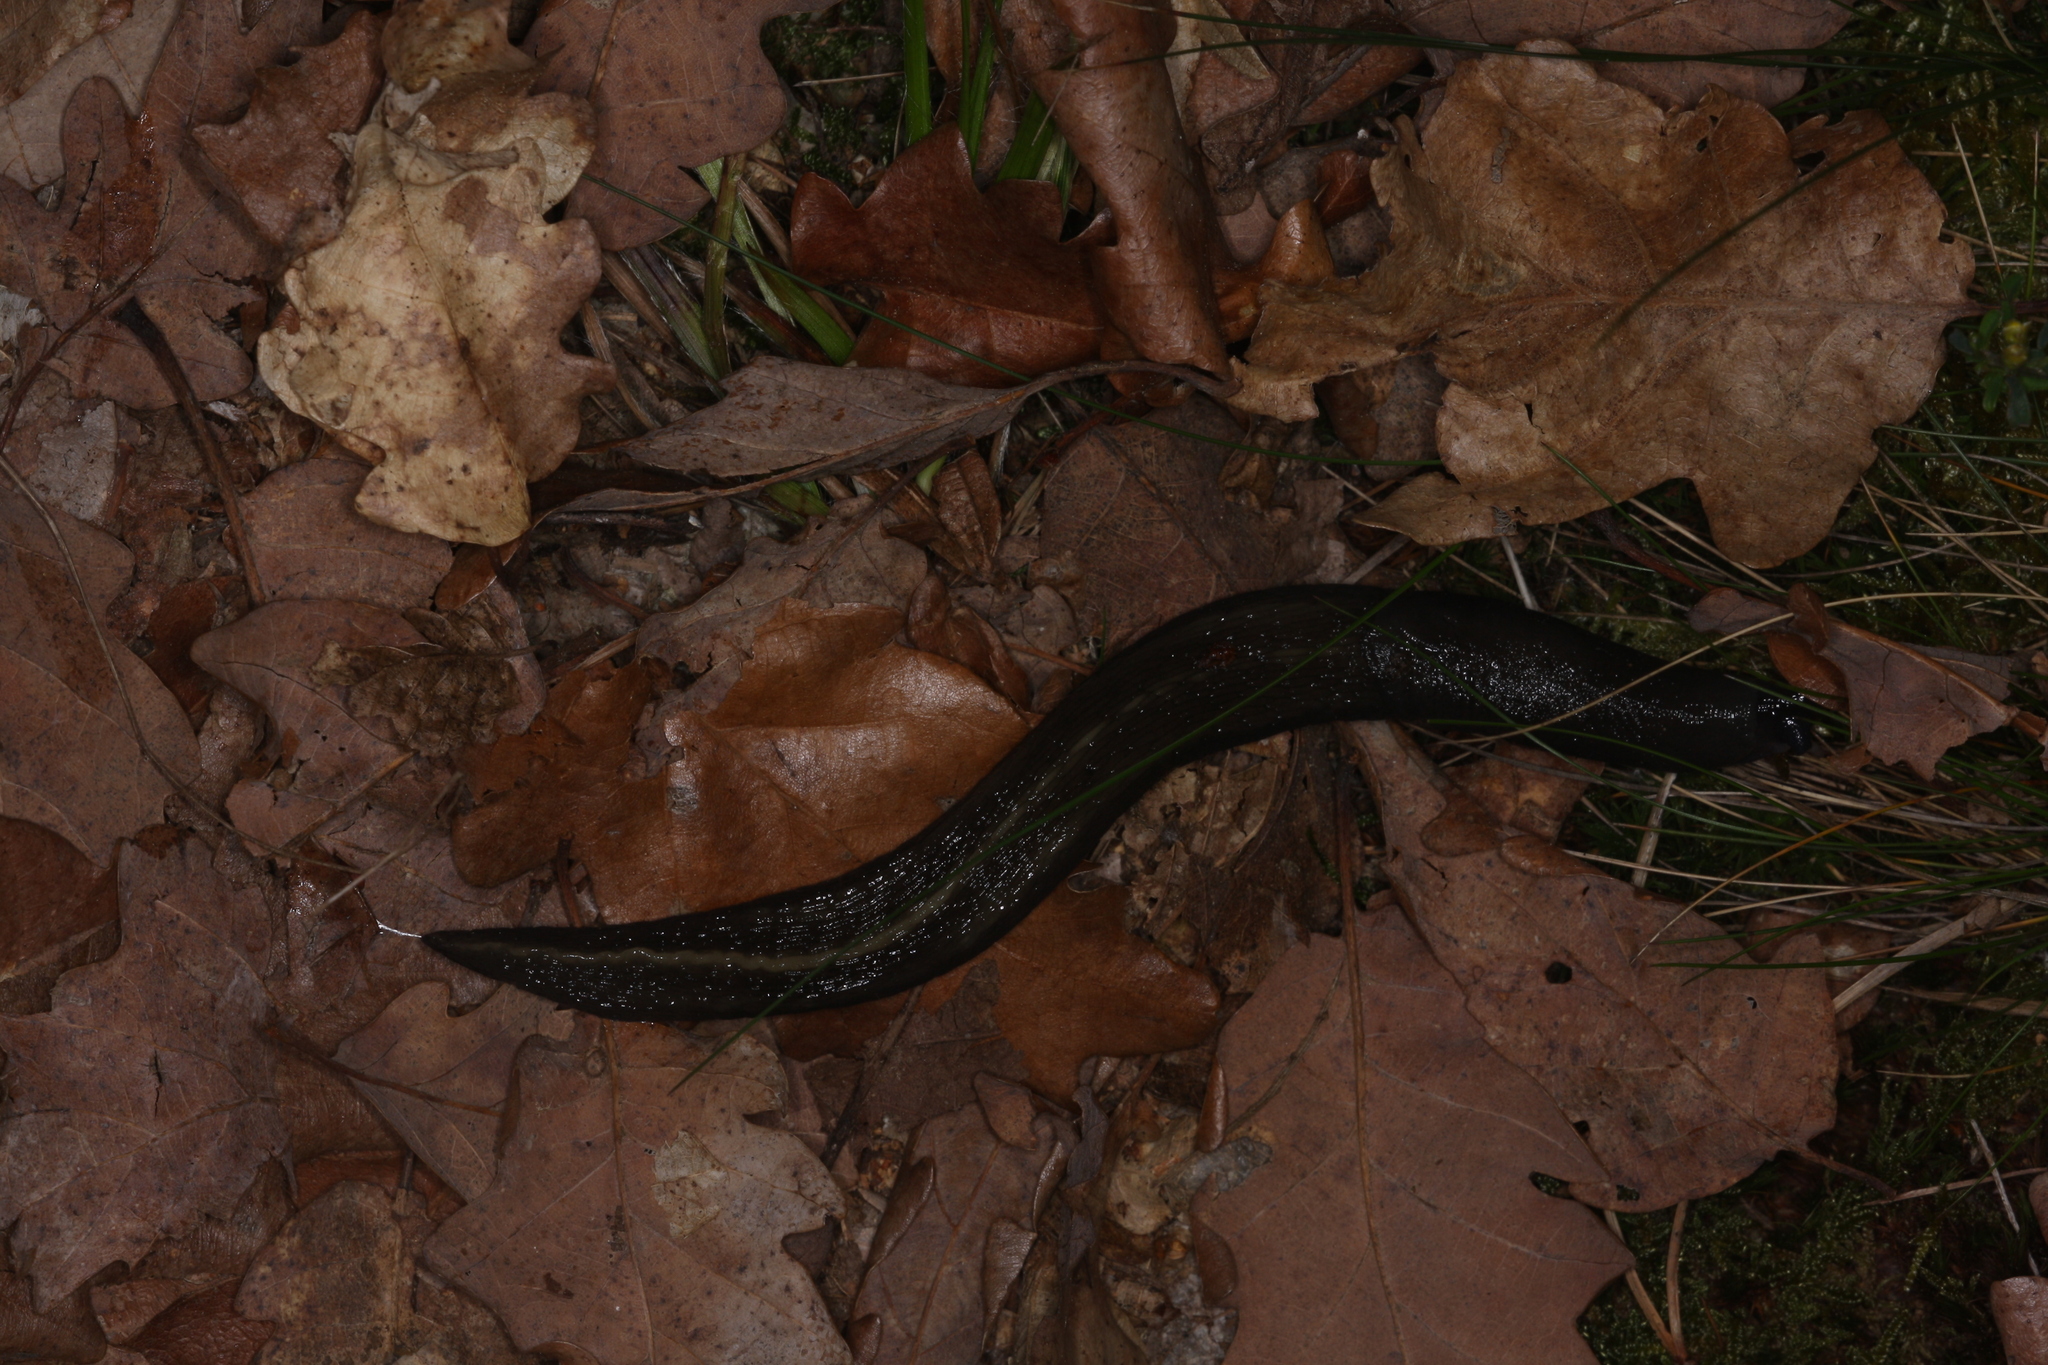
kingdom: Animalia
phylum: Mollusca
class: Gastropoda
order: Stylommatophora
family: Limacidae
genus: Limax
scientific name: Limax cinereoniger
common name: Ash-black slug
